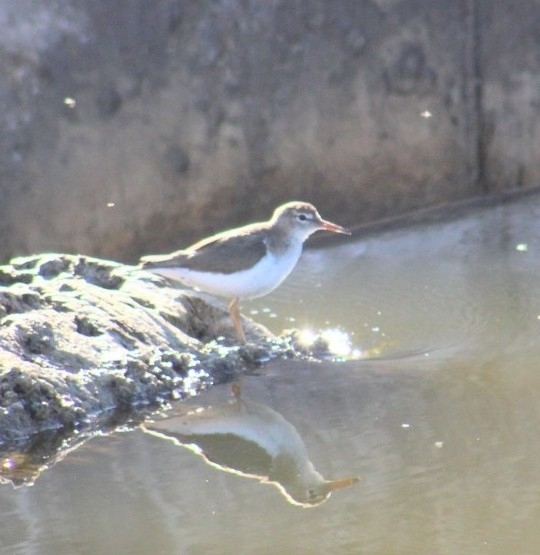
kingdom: Animalia
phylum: Chordata
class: Aves
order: Charadriiformes
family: Scolopacidae
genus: Actitis
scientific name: Actitis macularius
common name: Spotted sandpiper
